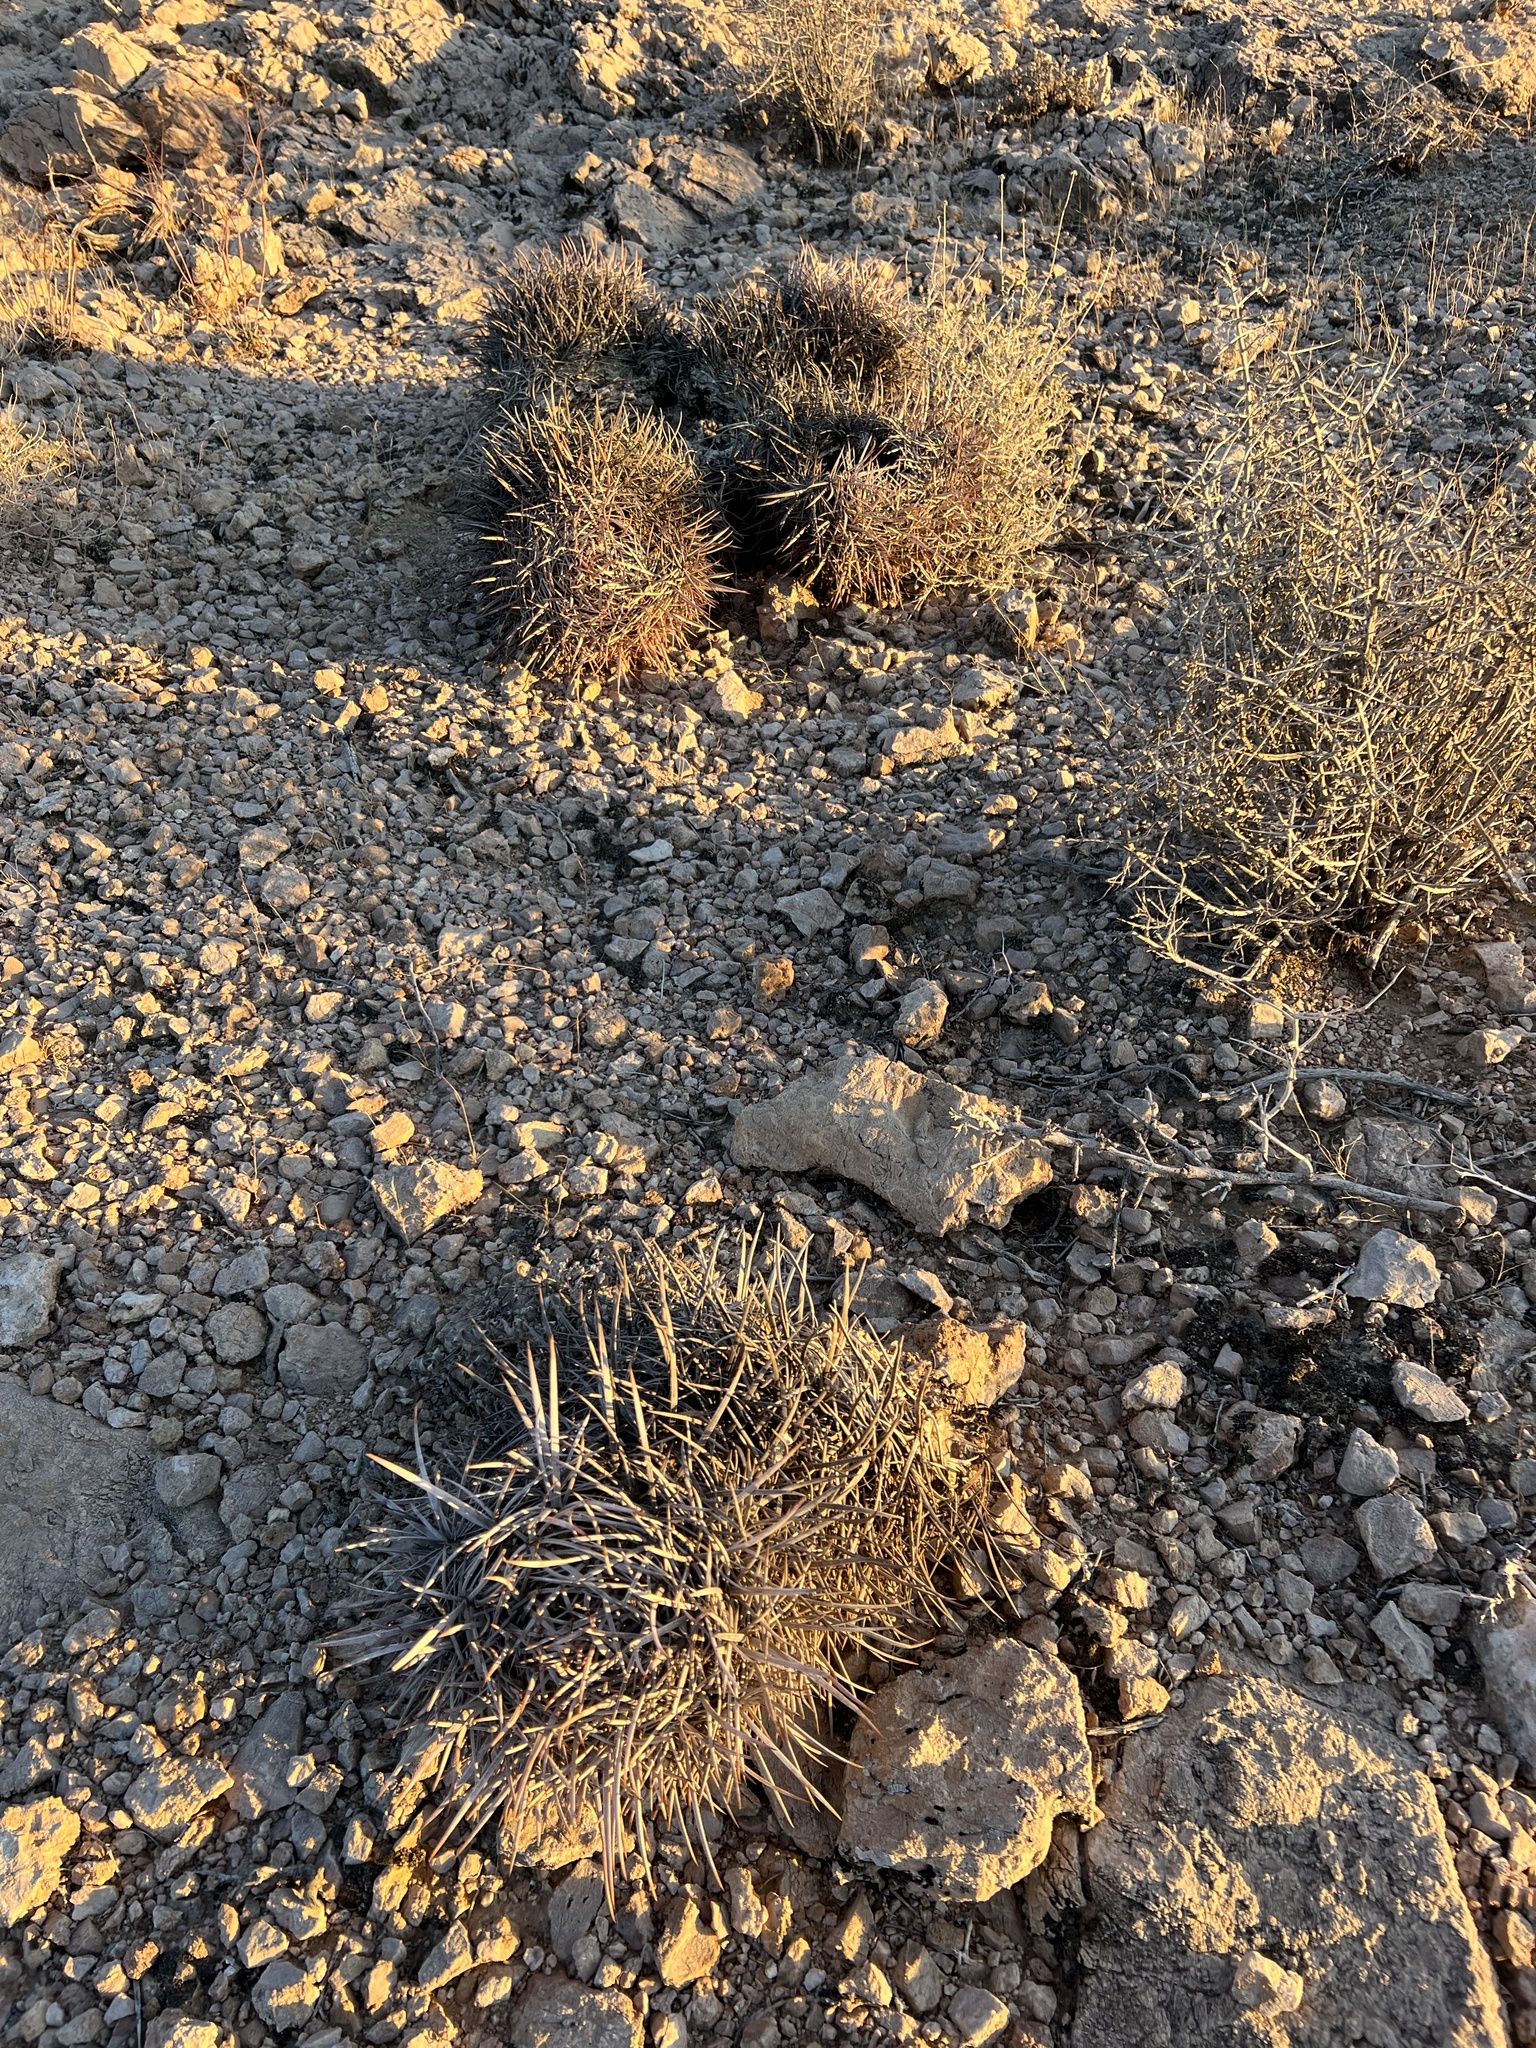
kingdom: Plantae
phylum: Tracheophyta
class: Magnoliopsida
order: Caryophyllales
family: Cactaceae
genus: Echinocactus
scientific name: Echinocactus polycephalus
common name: Cottontop cactus
